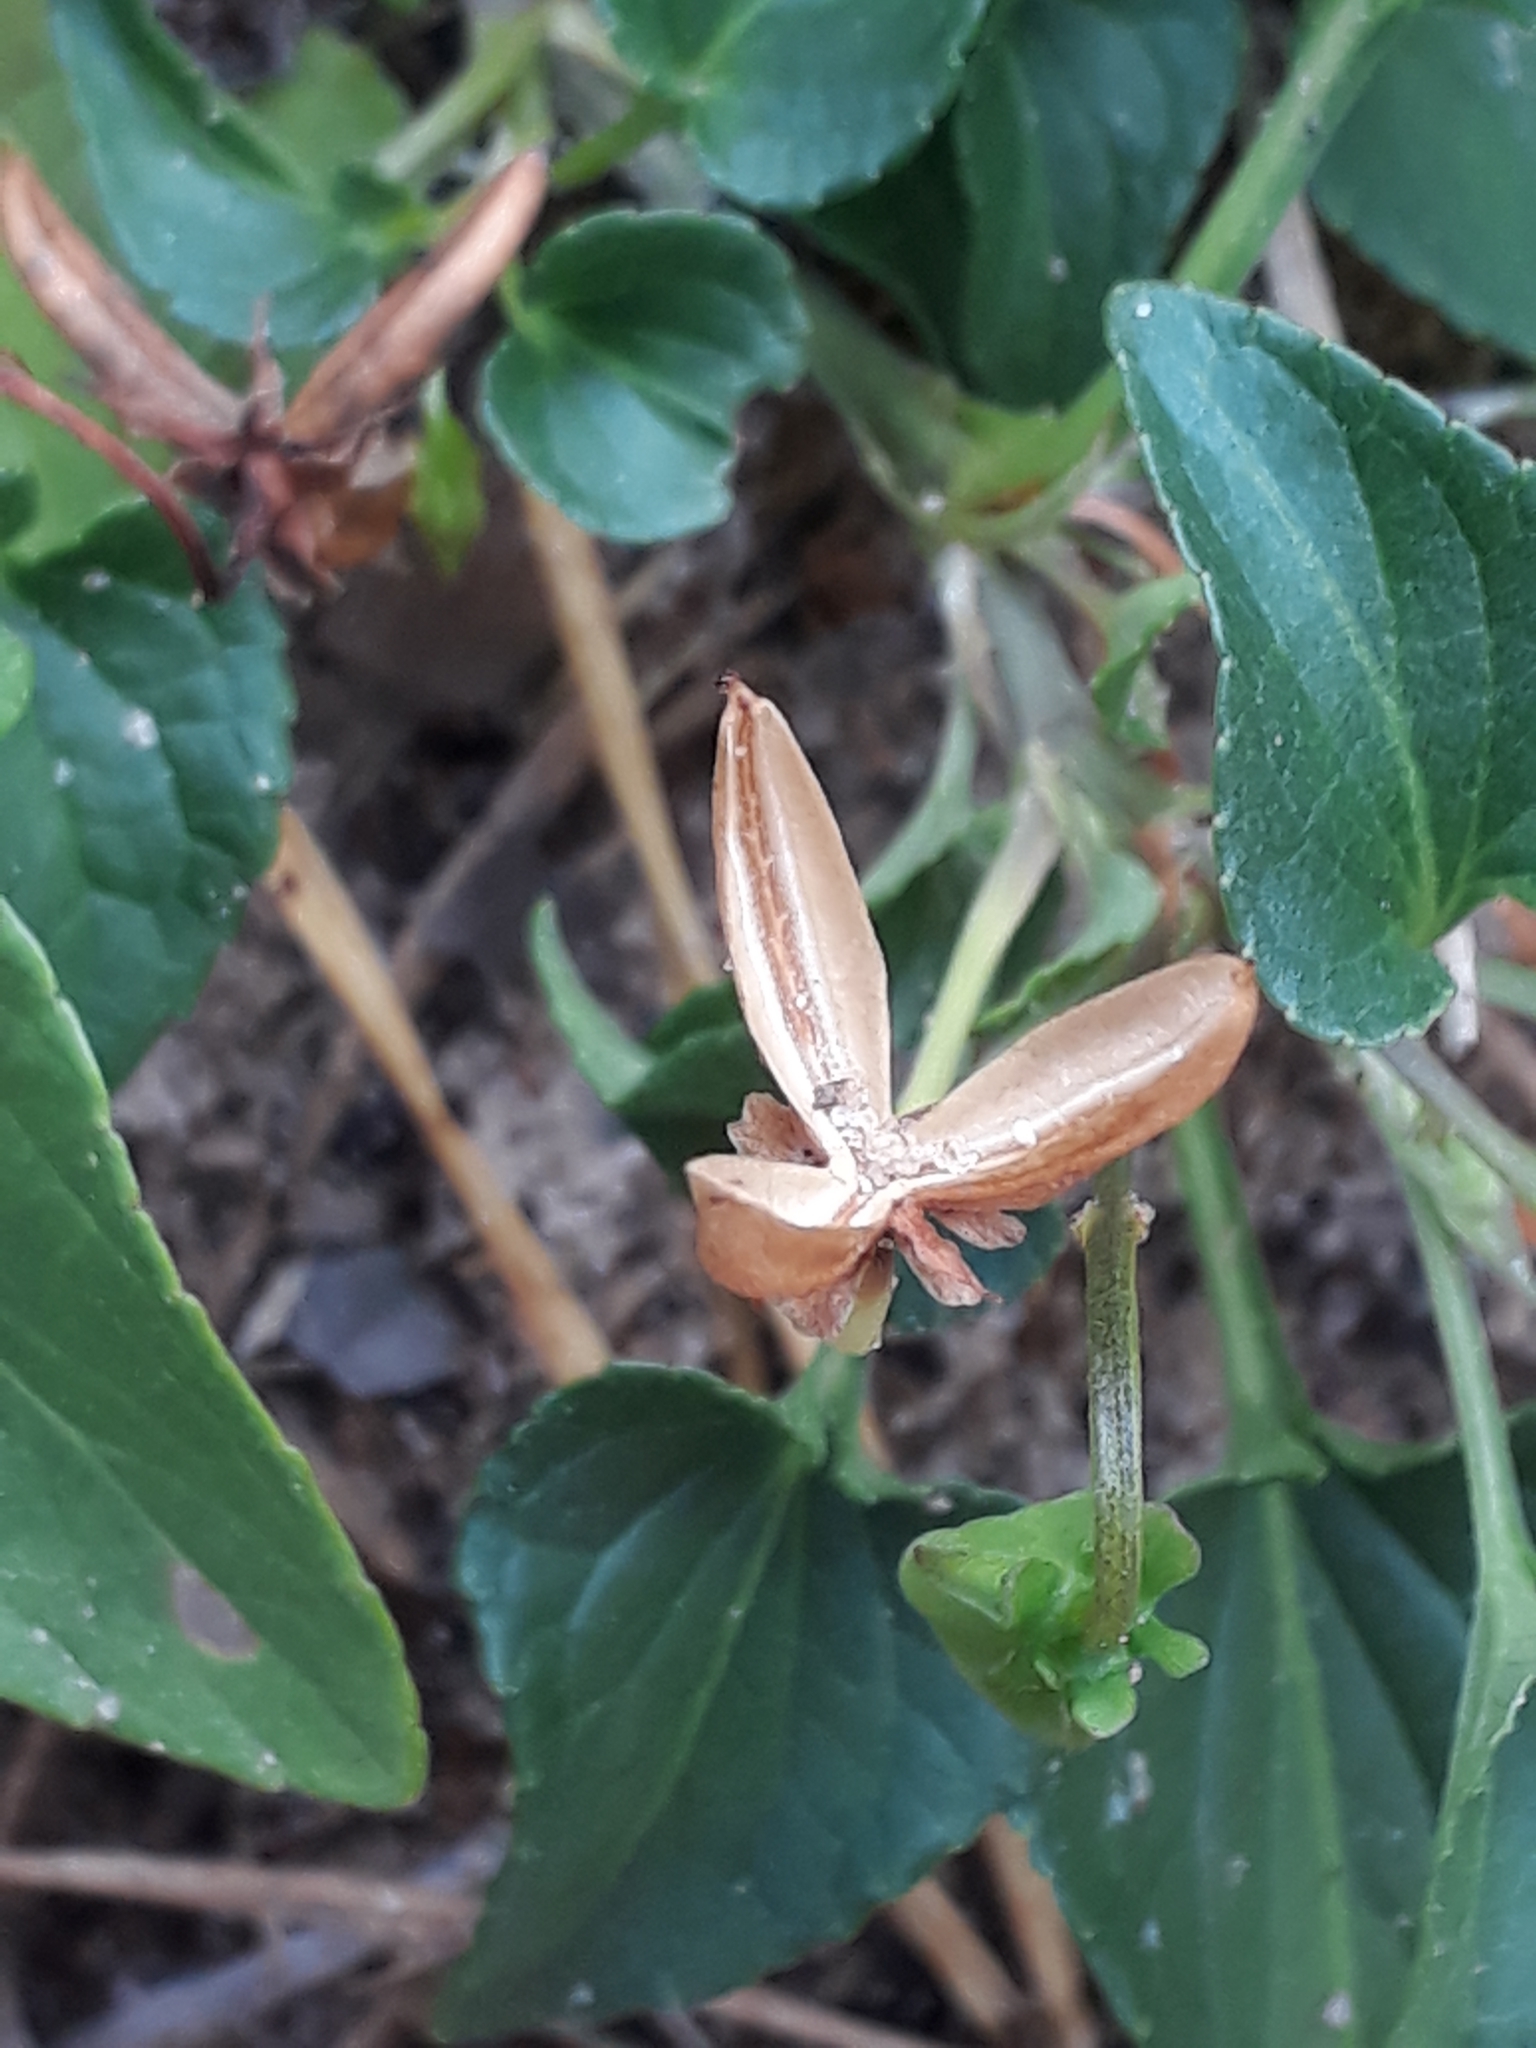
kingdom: Plantae
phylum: Tracheophyta
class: Magnoliopsida
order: Malpighiales
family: Violaceae
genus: Viola
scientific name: Viola canina
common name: Heath dog-violet
